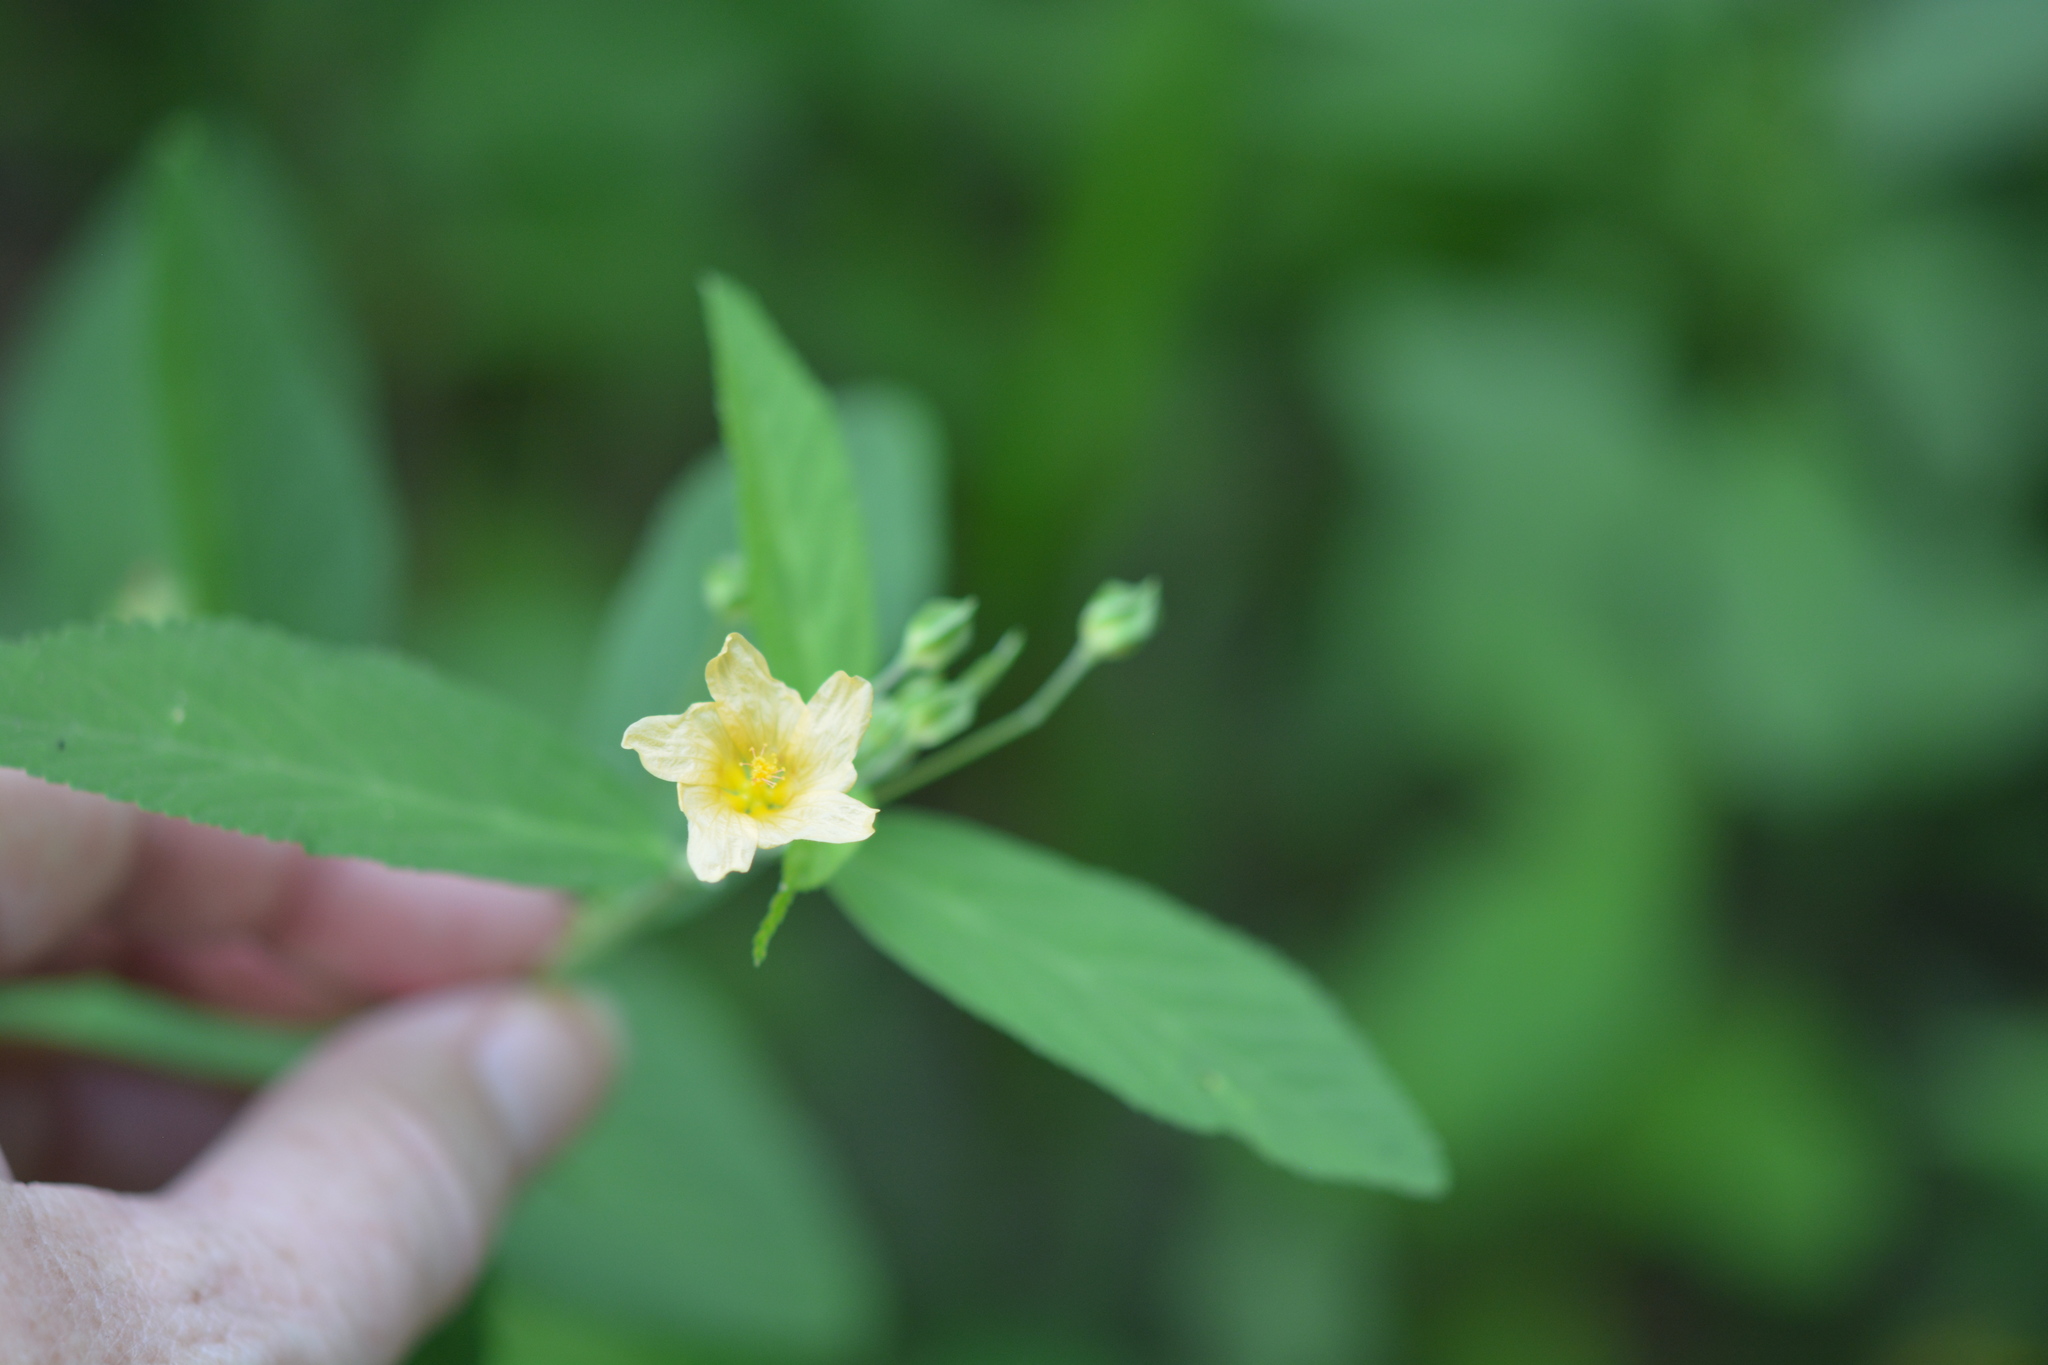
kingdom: Plantae
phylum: Tracheophyta
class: Magnoliopsida
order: Malvales
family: Malvaceae
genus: Sida
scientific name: Sida rhombifolia
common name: Queensland-hemp
